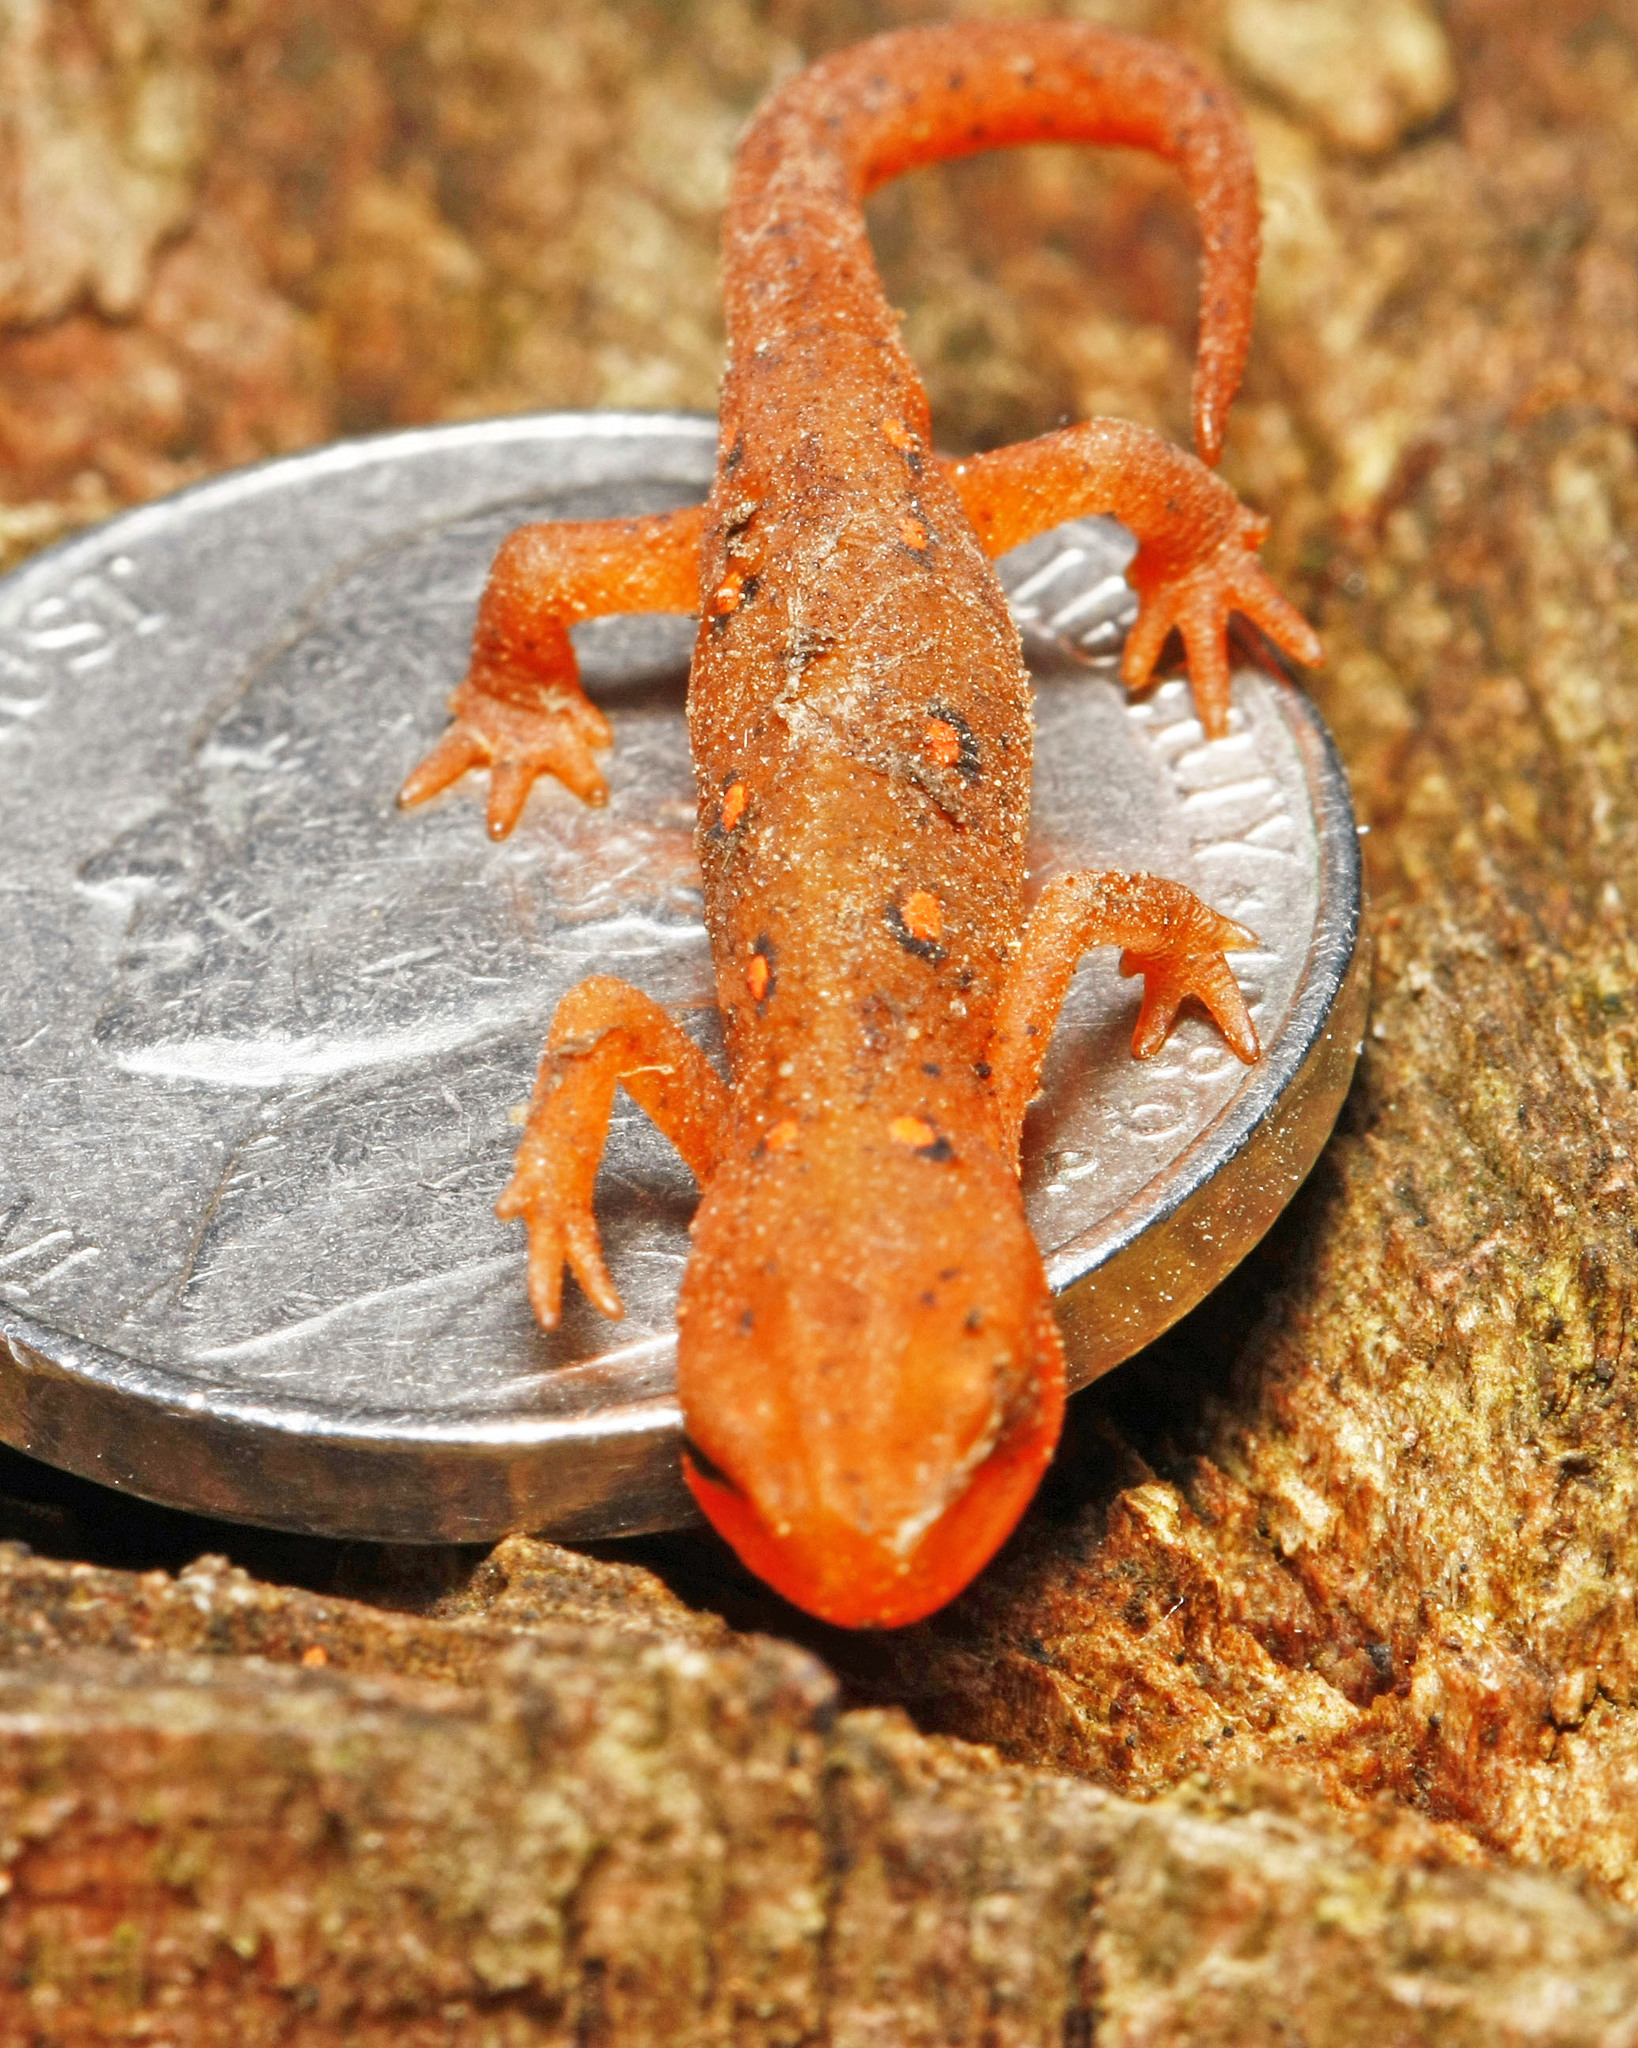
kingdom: Animalia
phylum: Chordata
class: Amphibia
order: Caudata
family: Salamandridae
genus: Notophthalmus
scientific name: Notophthalmus viridescens
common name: Eastern newt
